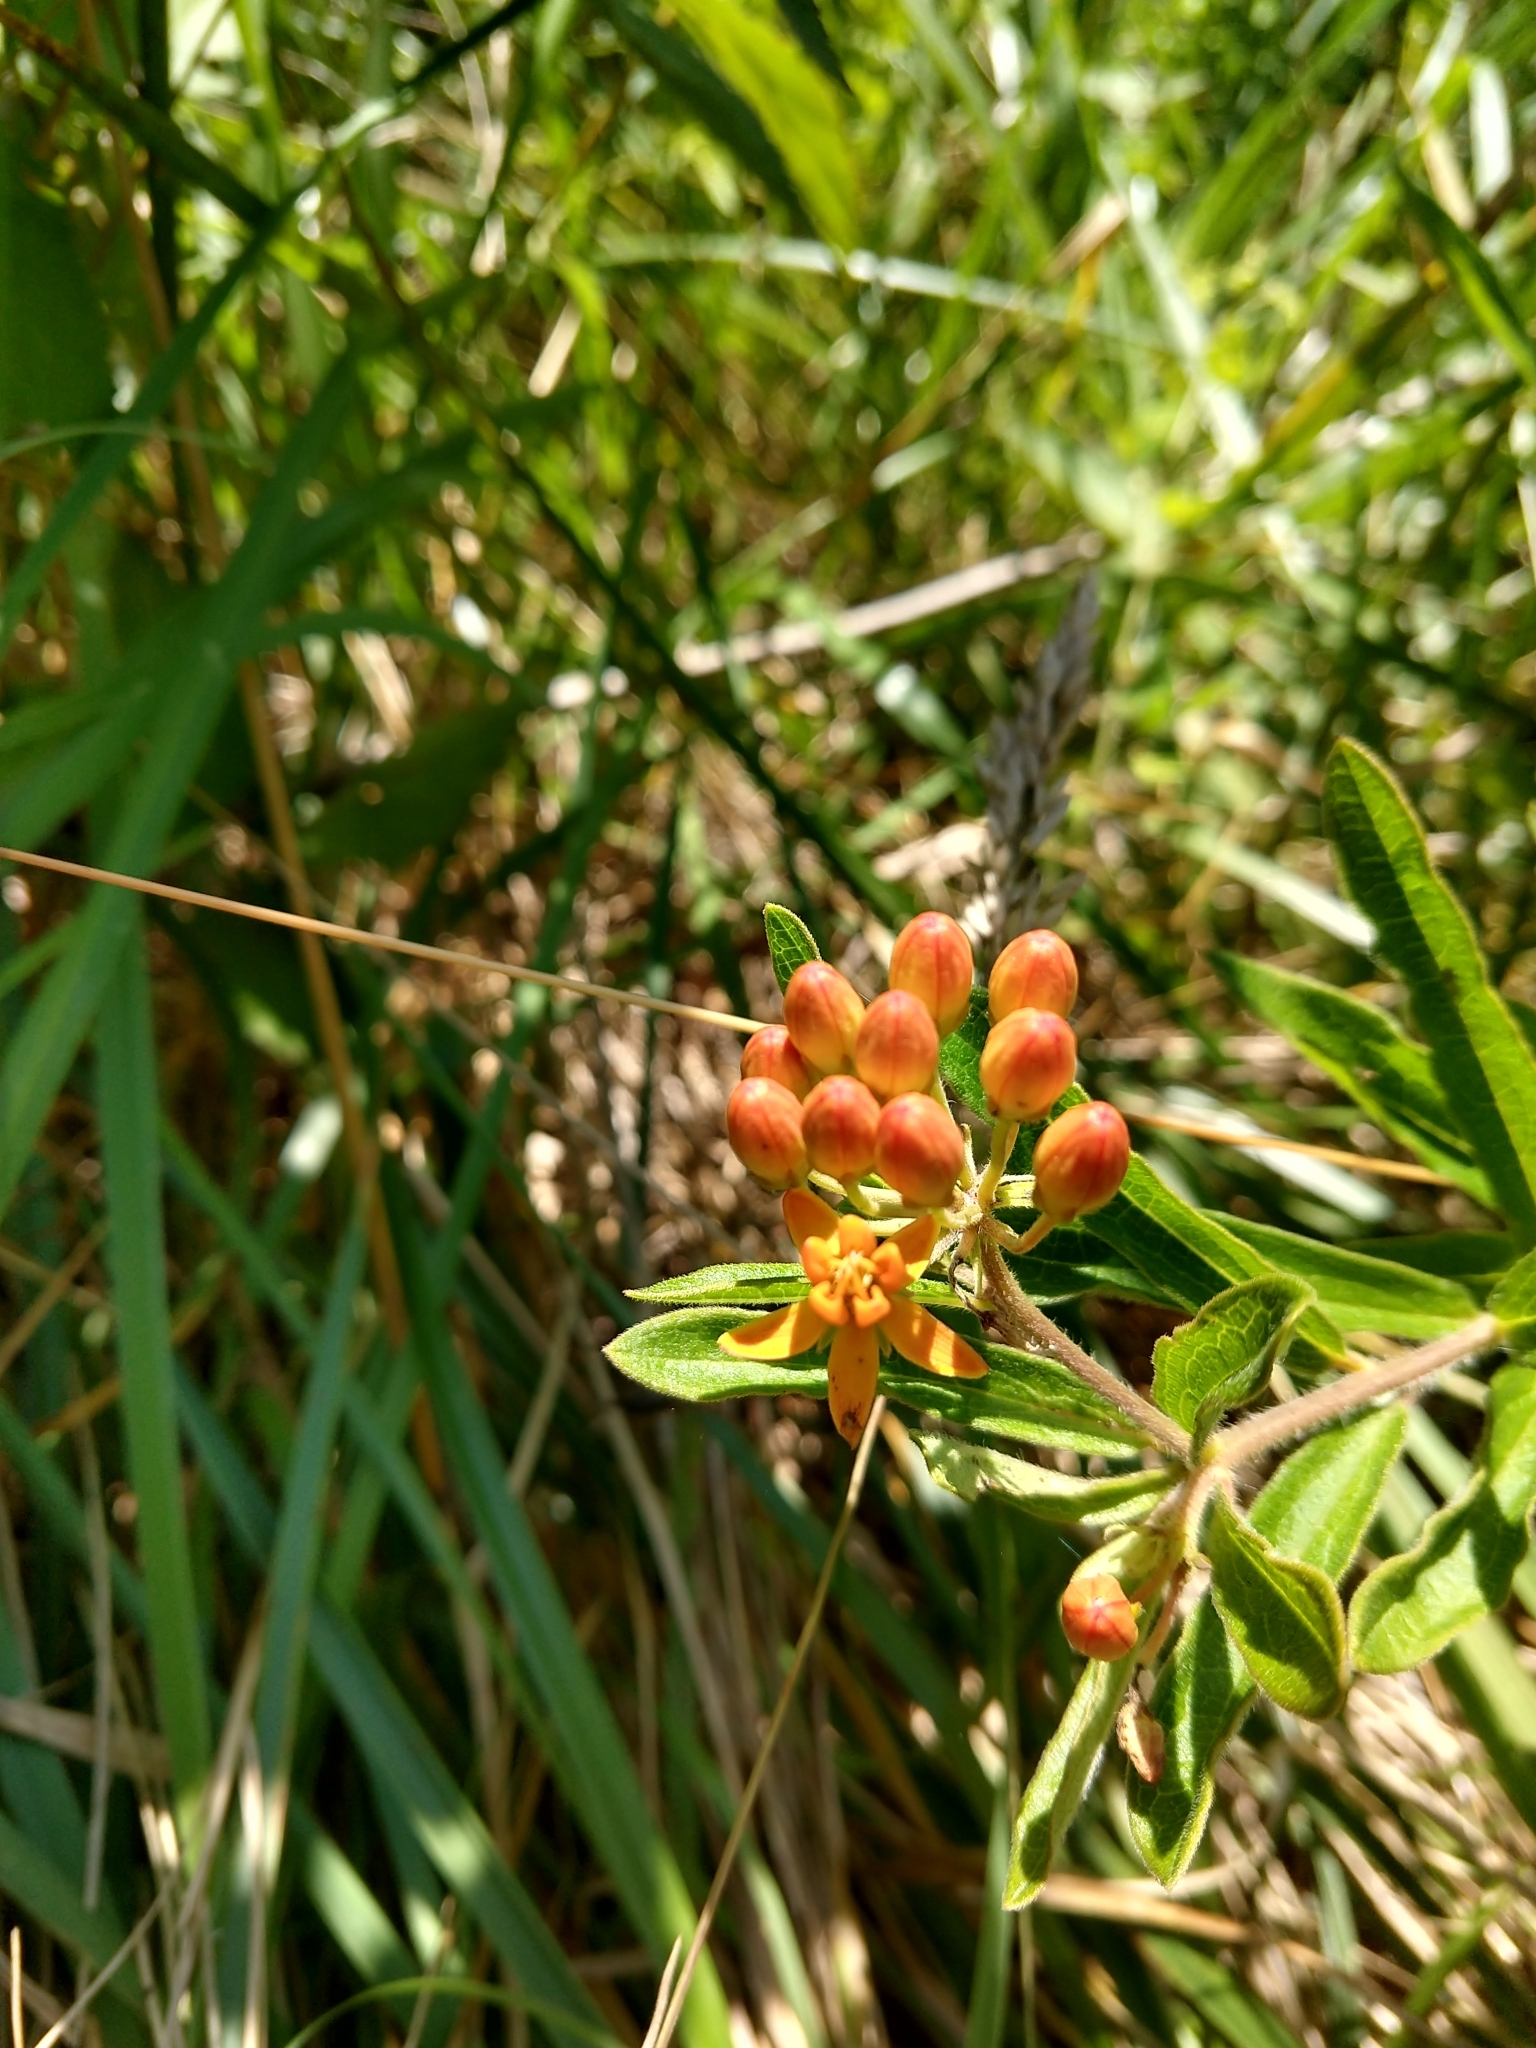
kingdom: Plantae
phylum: Tracheophyta
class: Magnoliopsida
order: Gentianales
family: Apocynaceae
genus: Asclepias
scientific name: Asclepias tuberosa
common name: Butterfly milkweed
